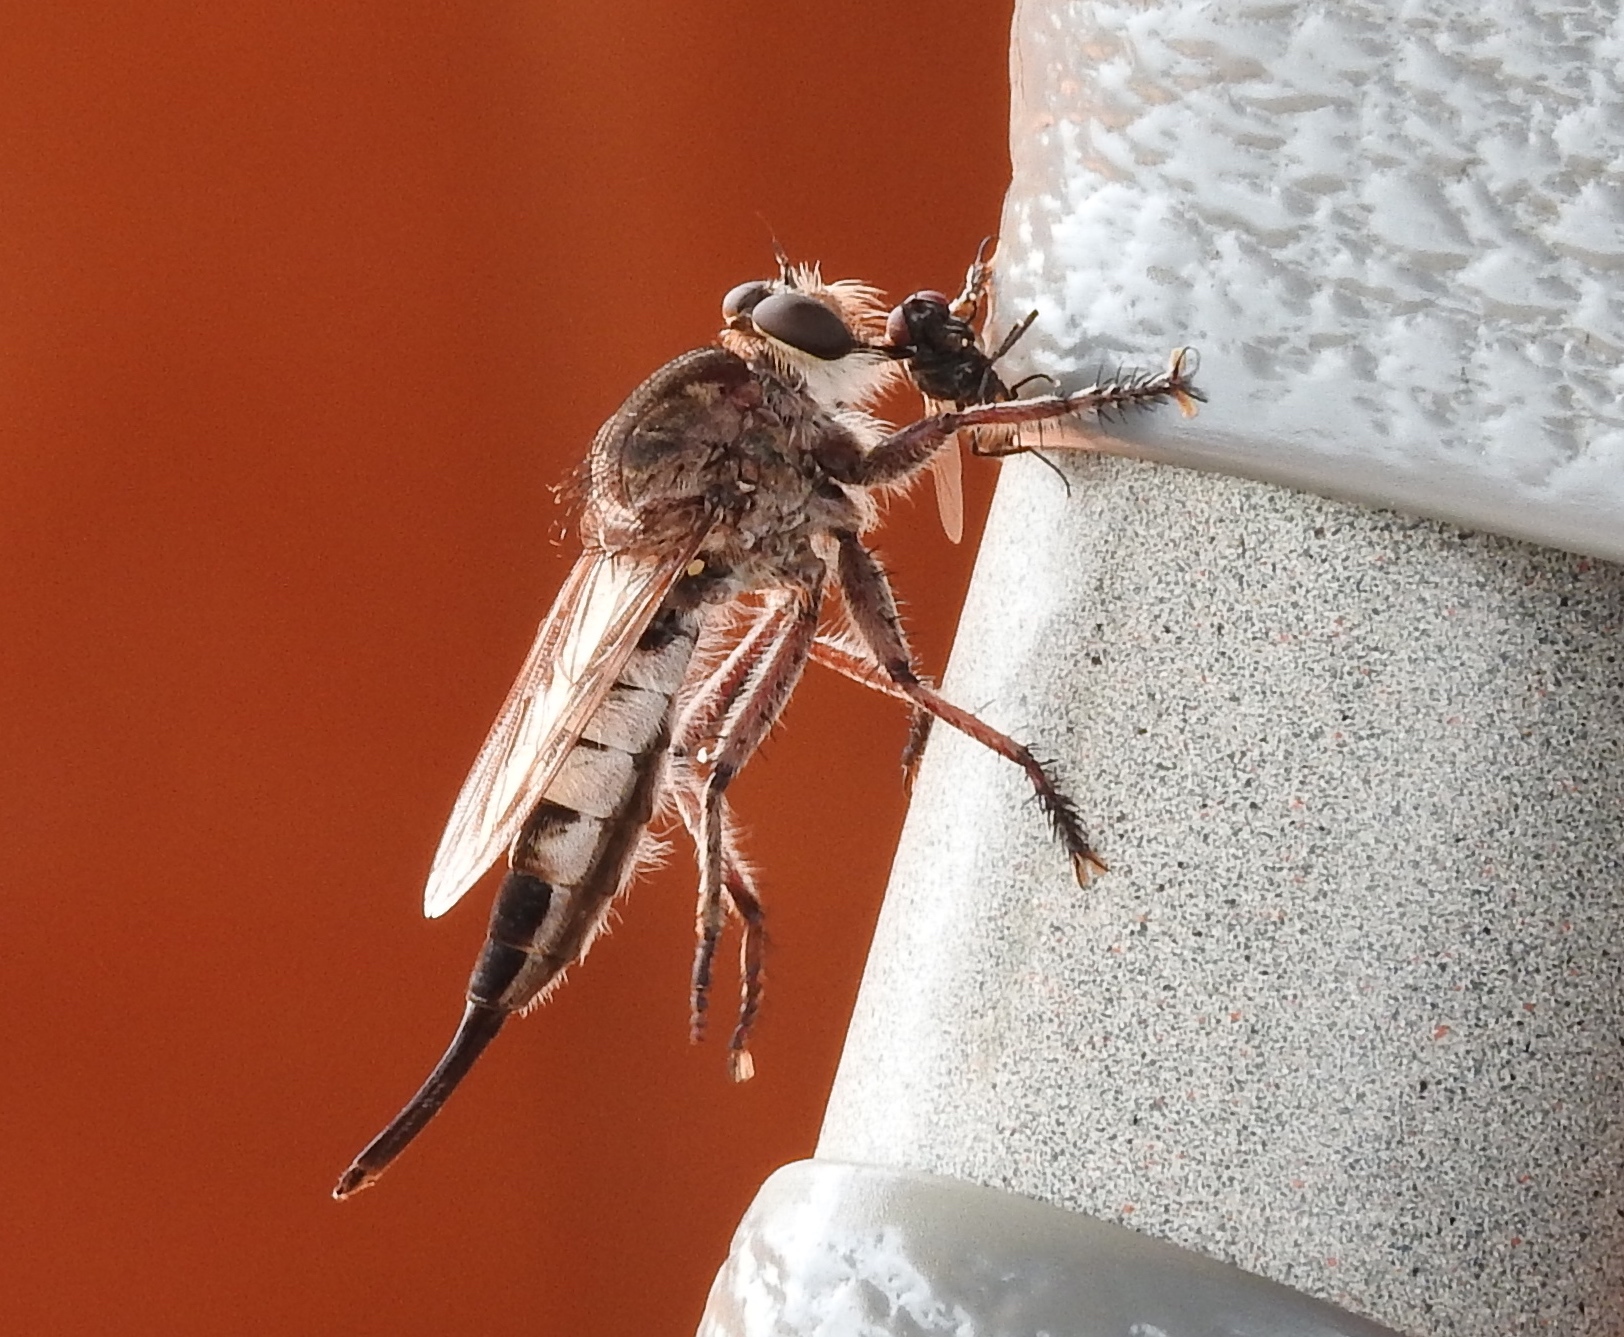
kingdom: Animalia
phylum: Arthropoda
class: Insecta
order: Diptera
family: Asilidae
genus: Efferia
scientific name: Efferia
